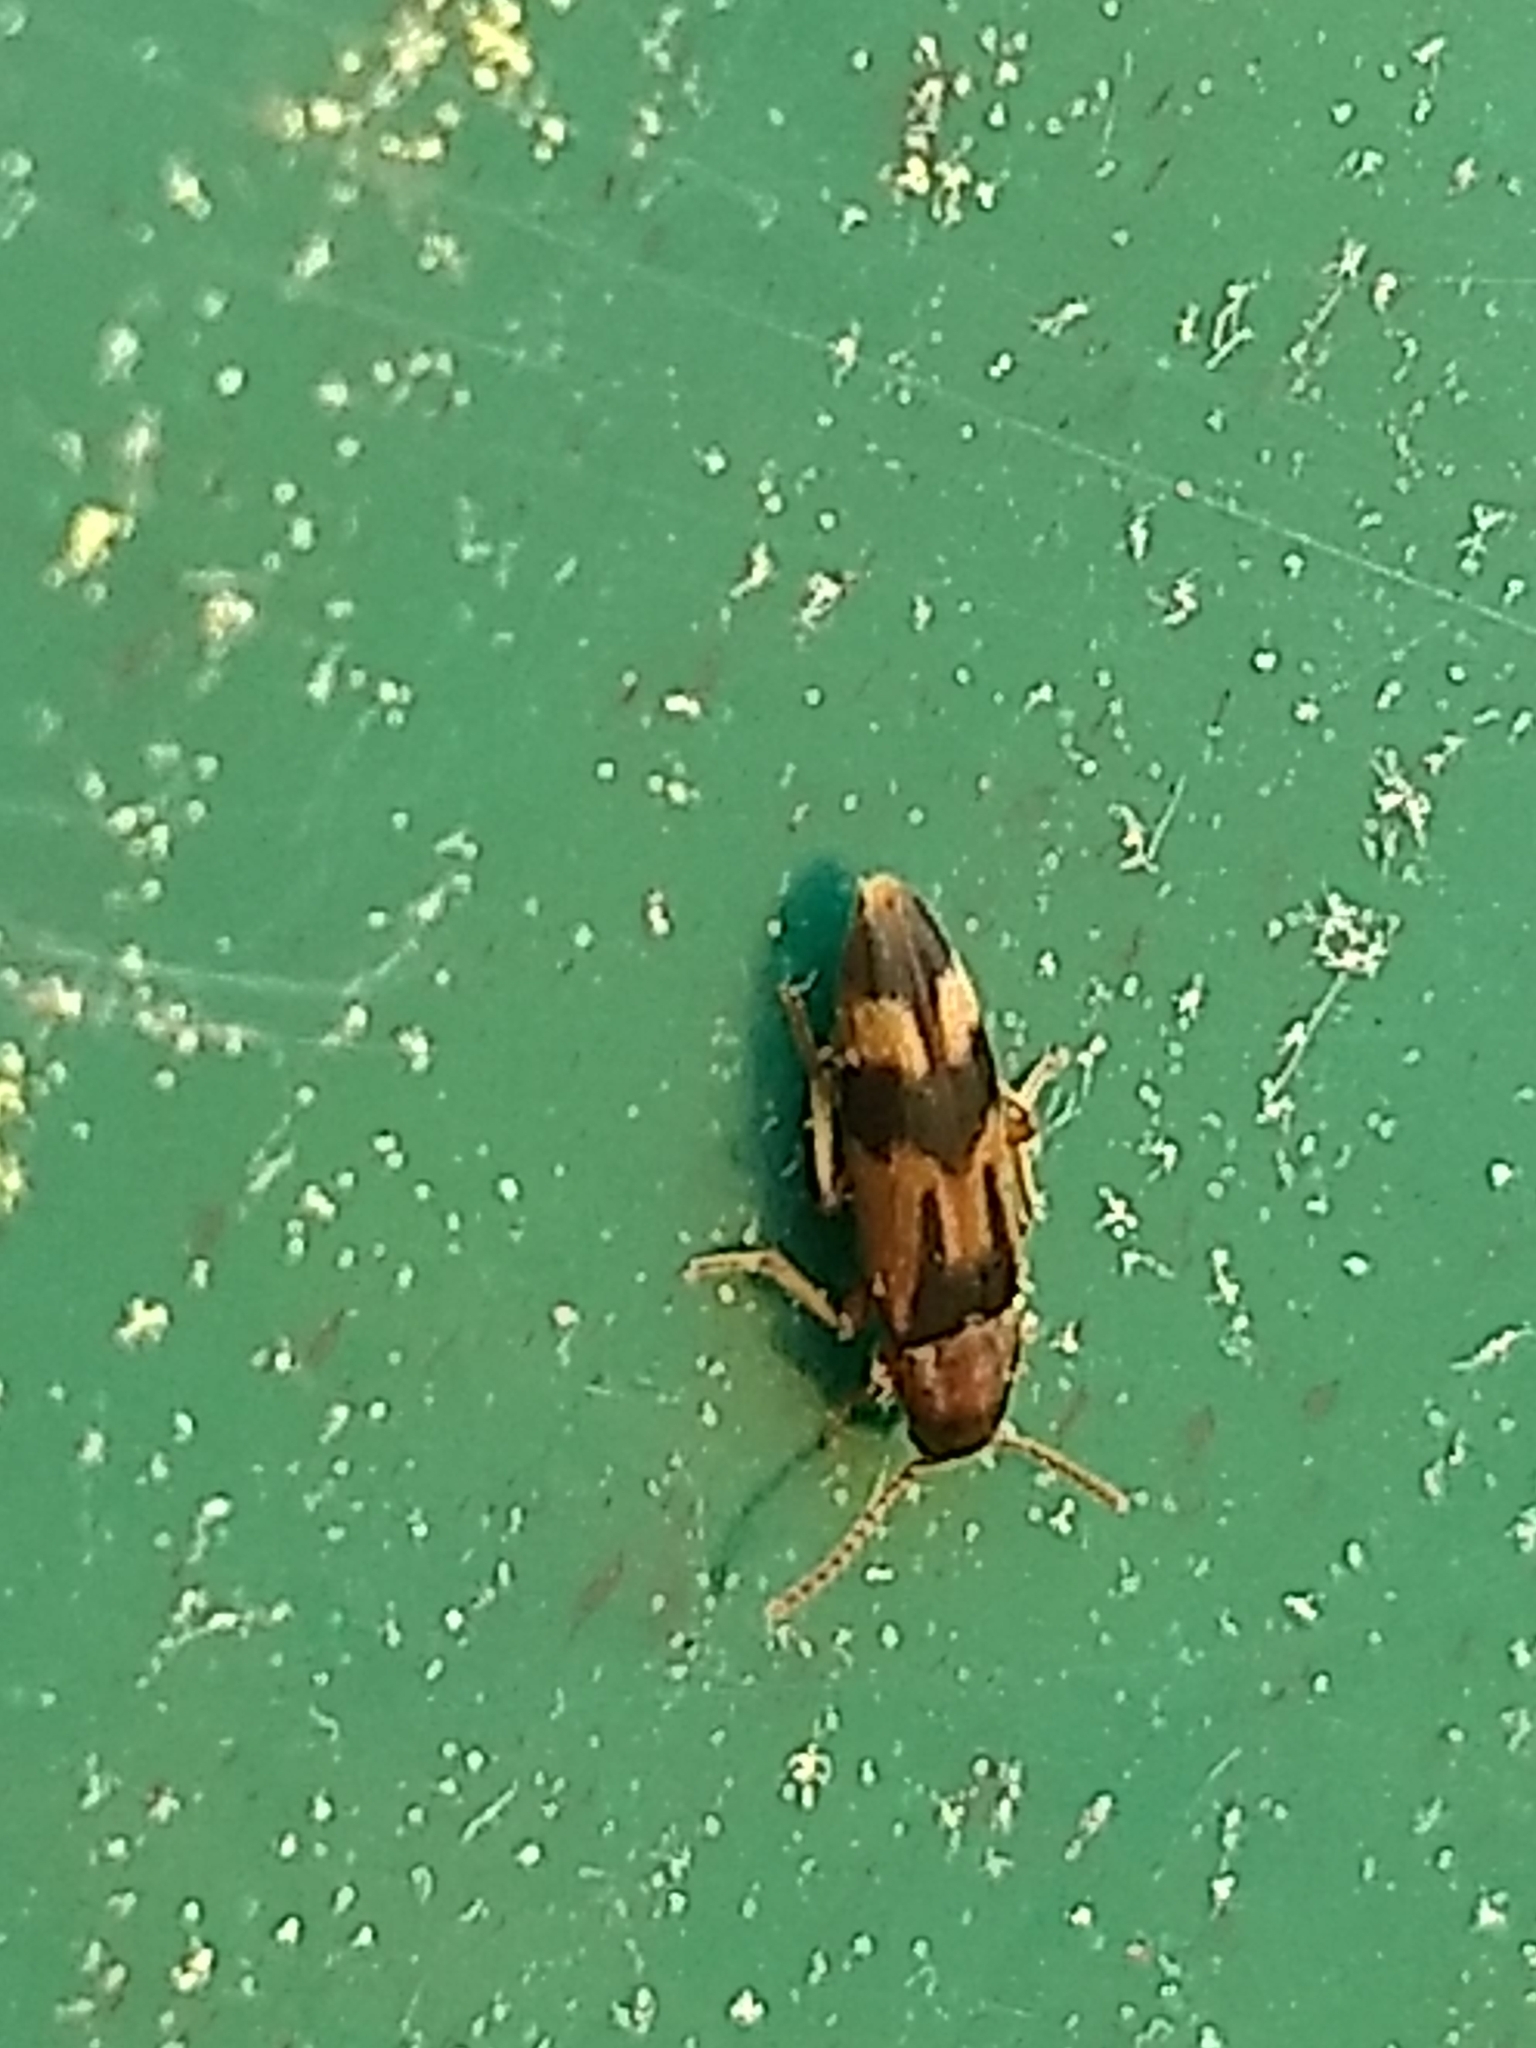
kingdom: Animalia
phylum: Arthropoda
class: Insecta
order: Coleoptera
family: Melandryidae
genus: Hypulus
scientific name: Hypulus simulator
